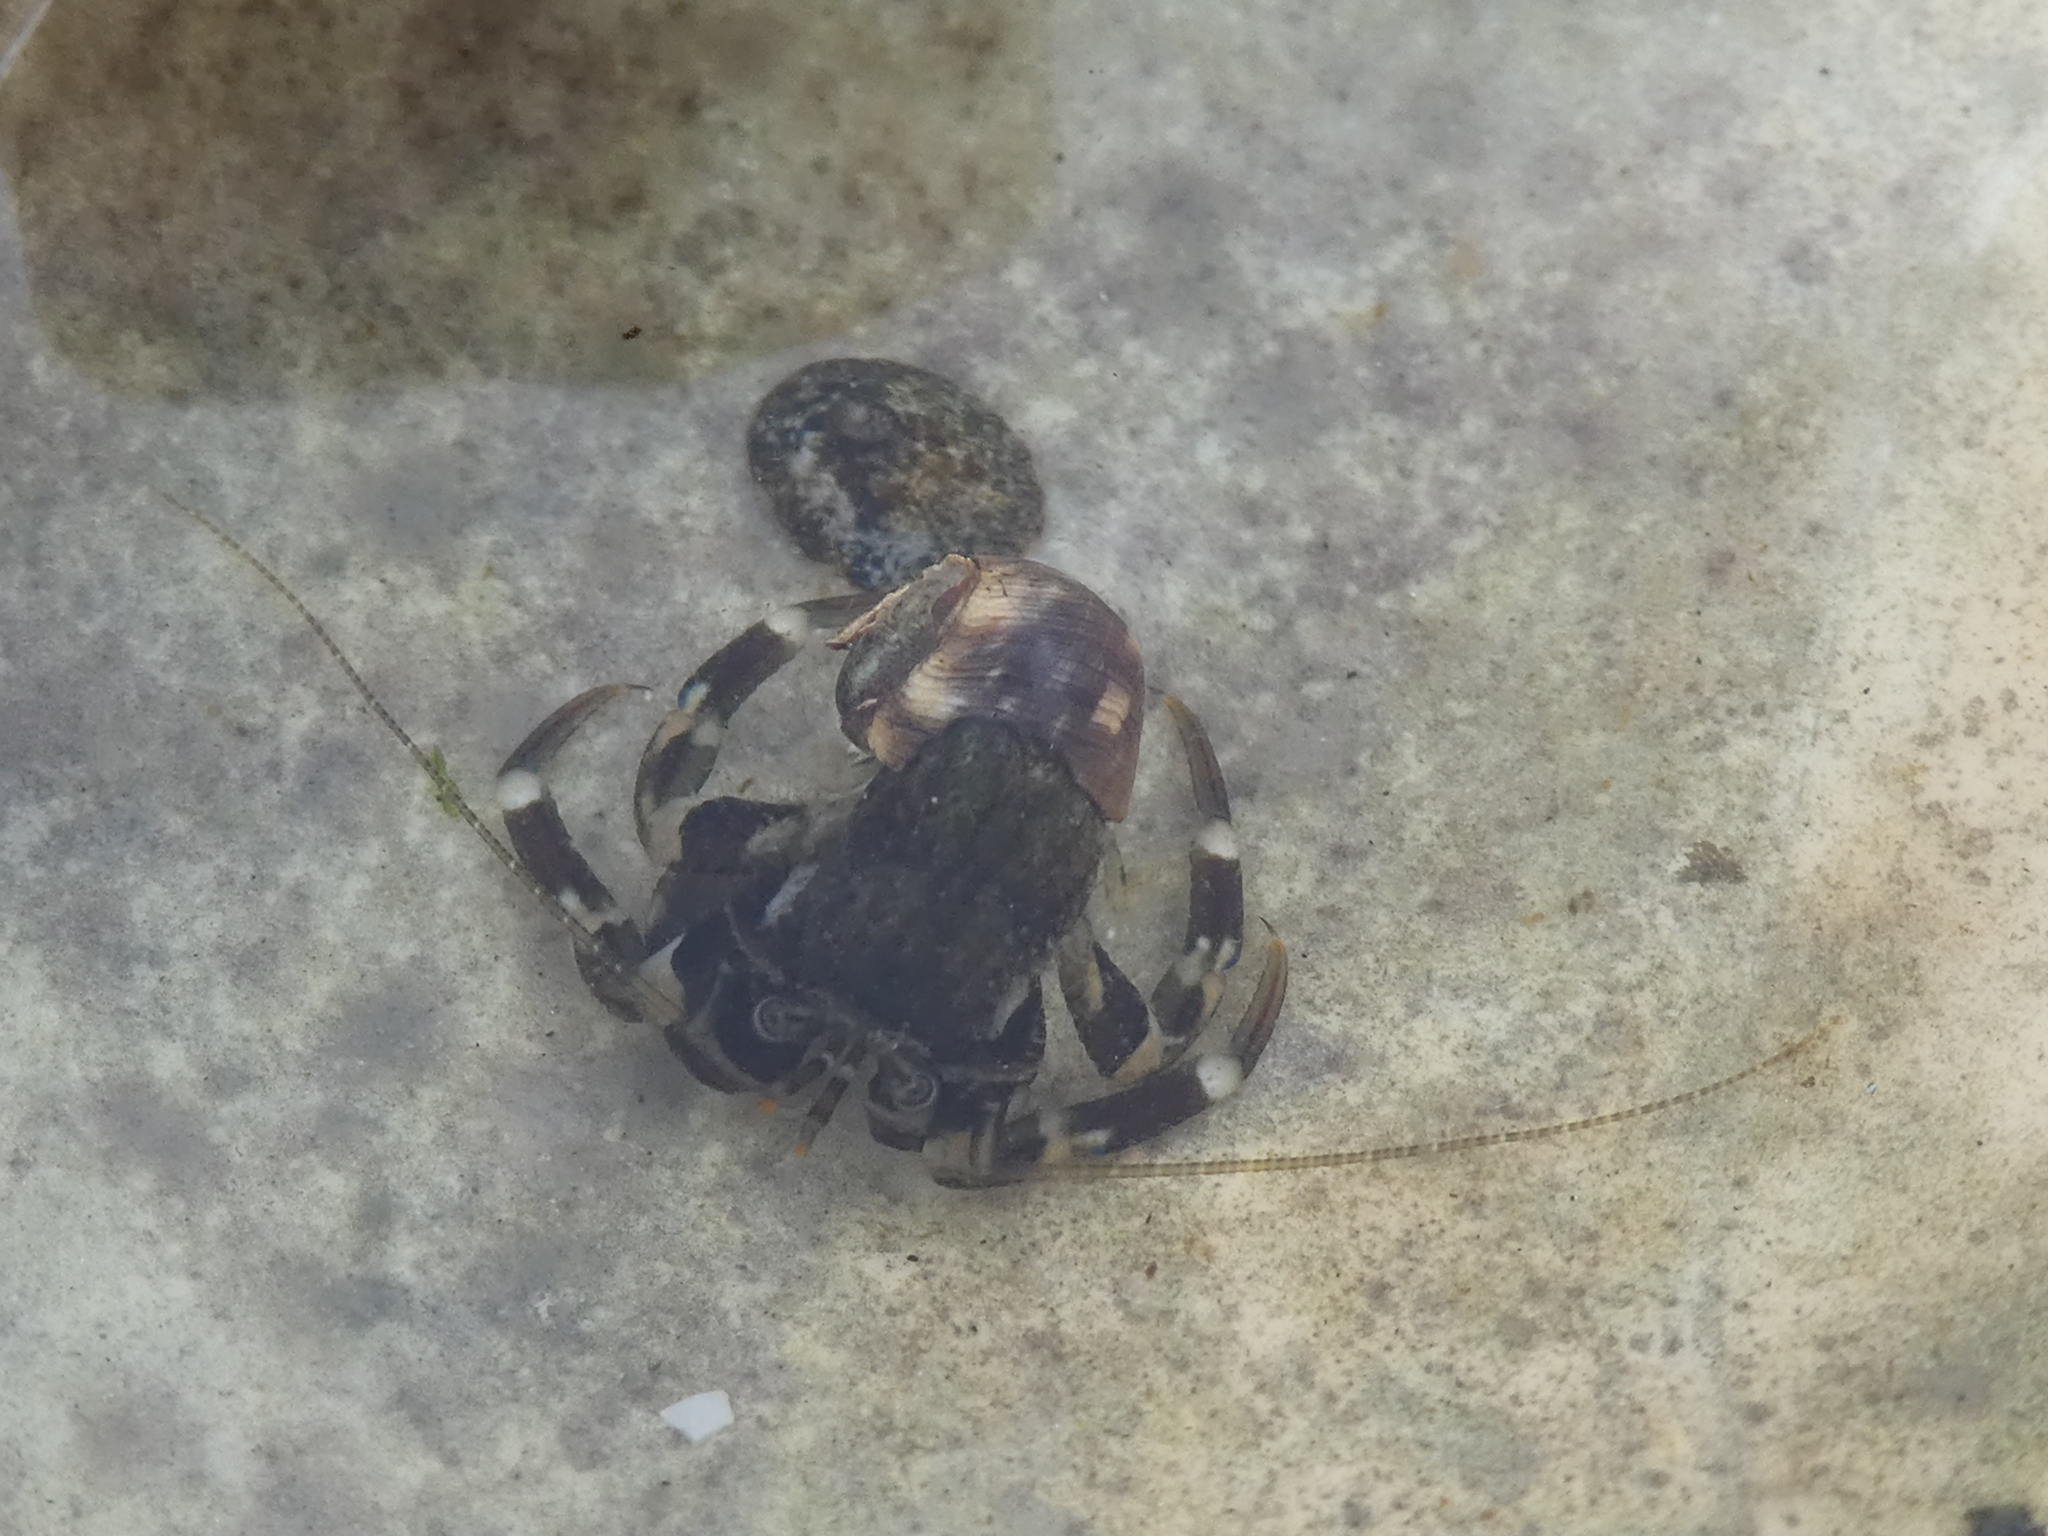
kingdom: Animalia
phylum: Arthropoda
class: Malacostraca
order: Decapoda
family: Paguridae
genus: Pagurus
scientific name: Pagurus hirsutiusculus
